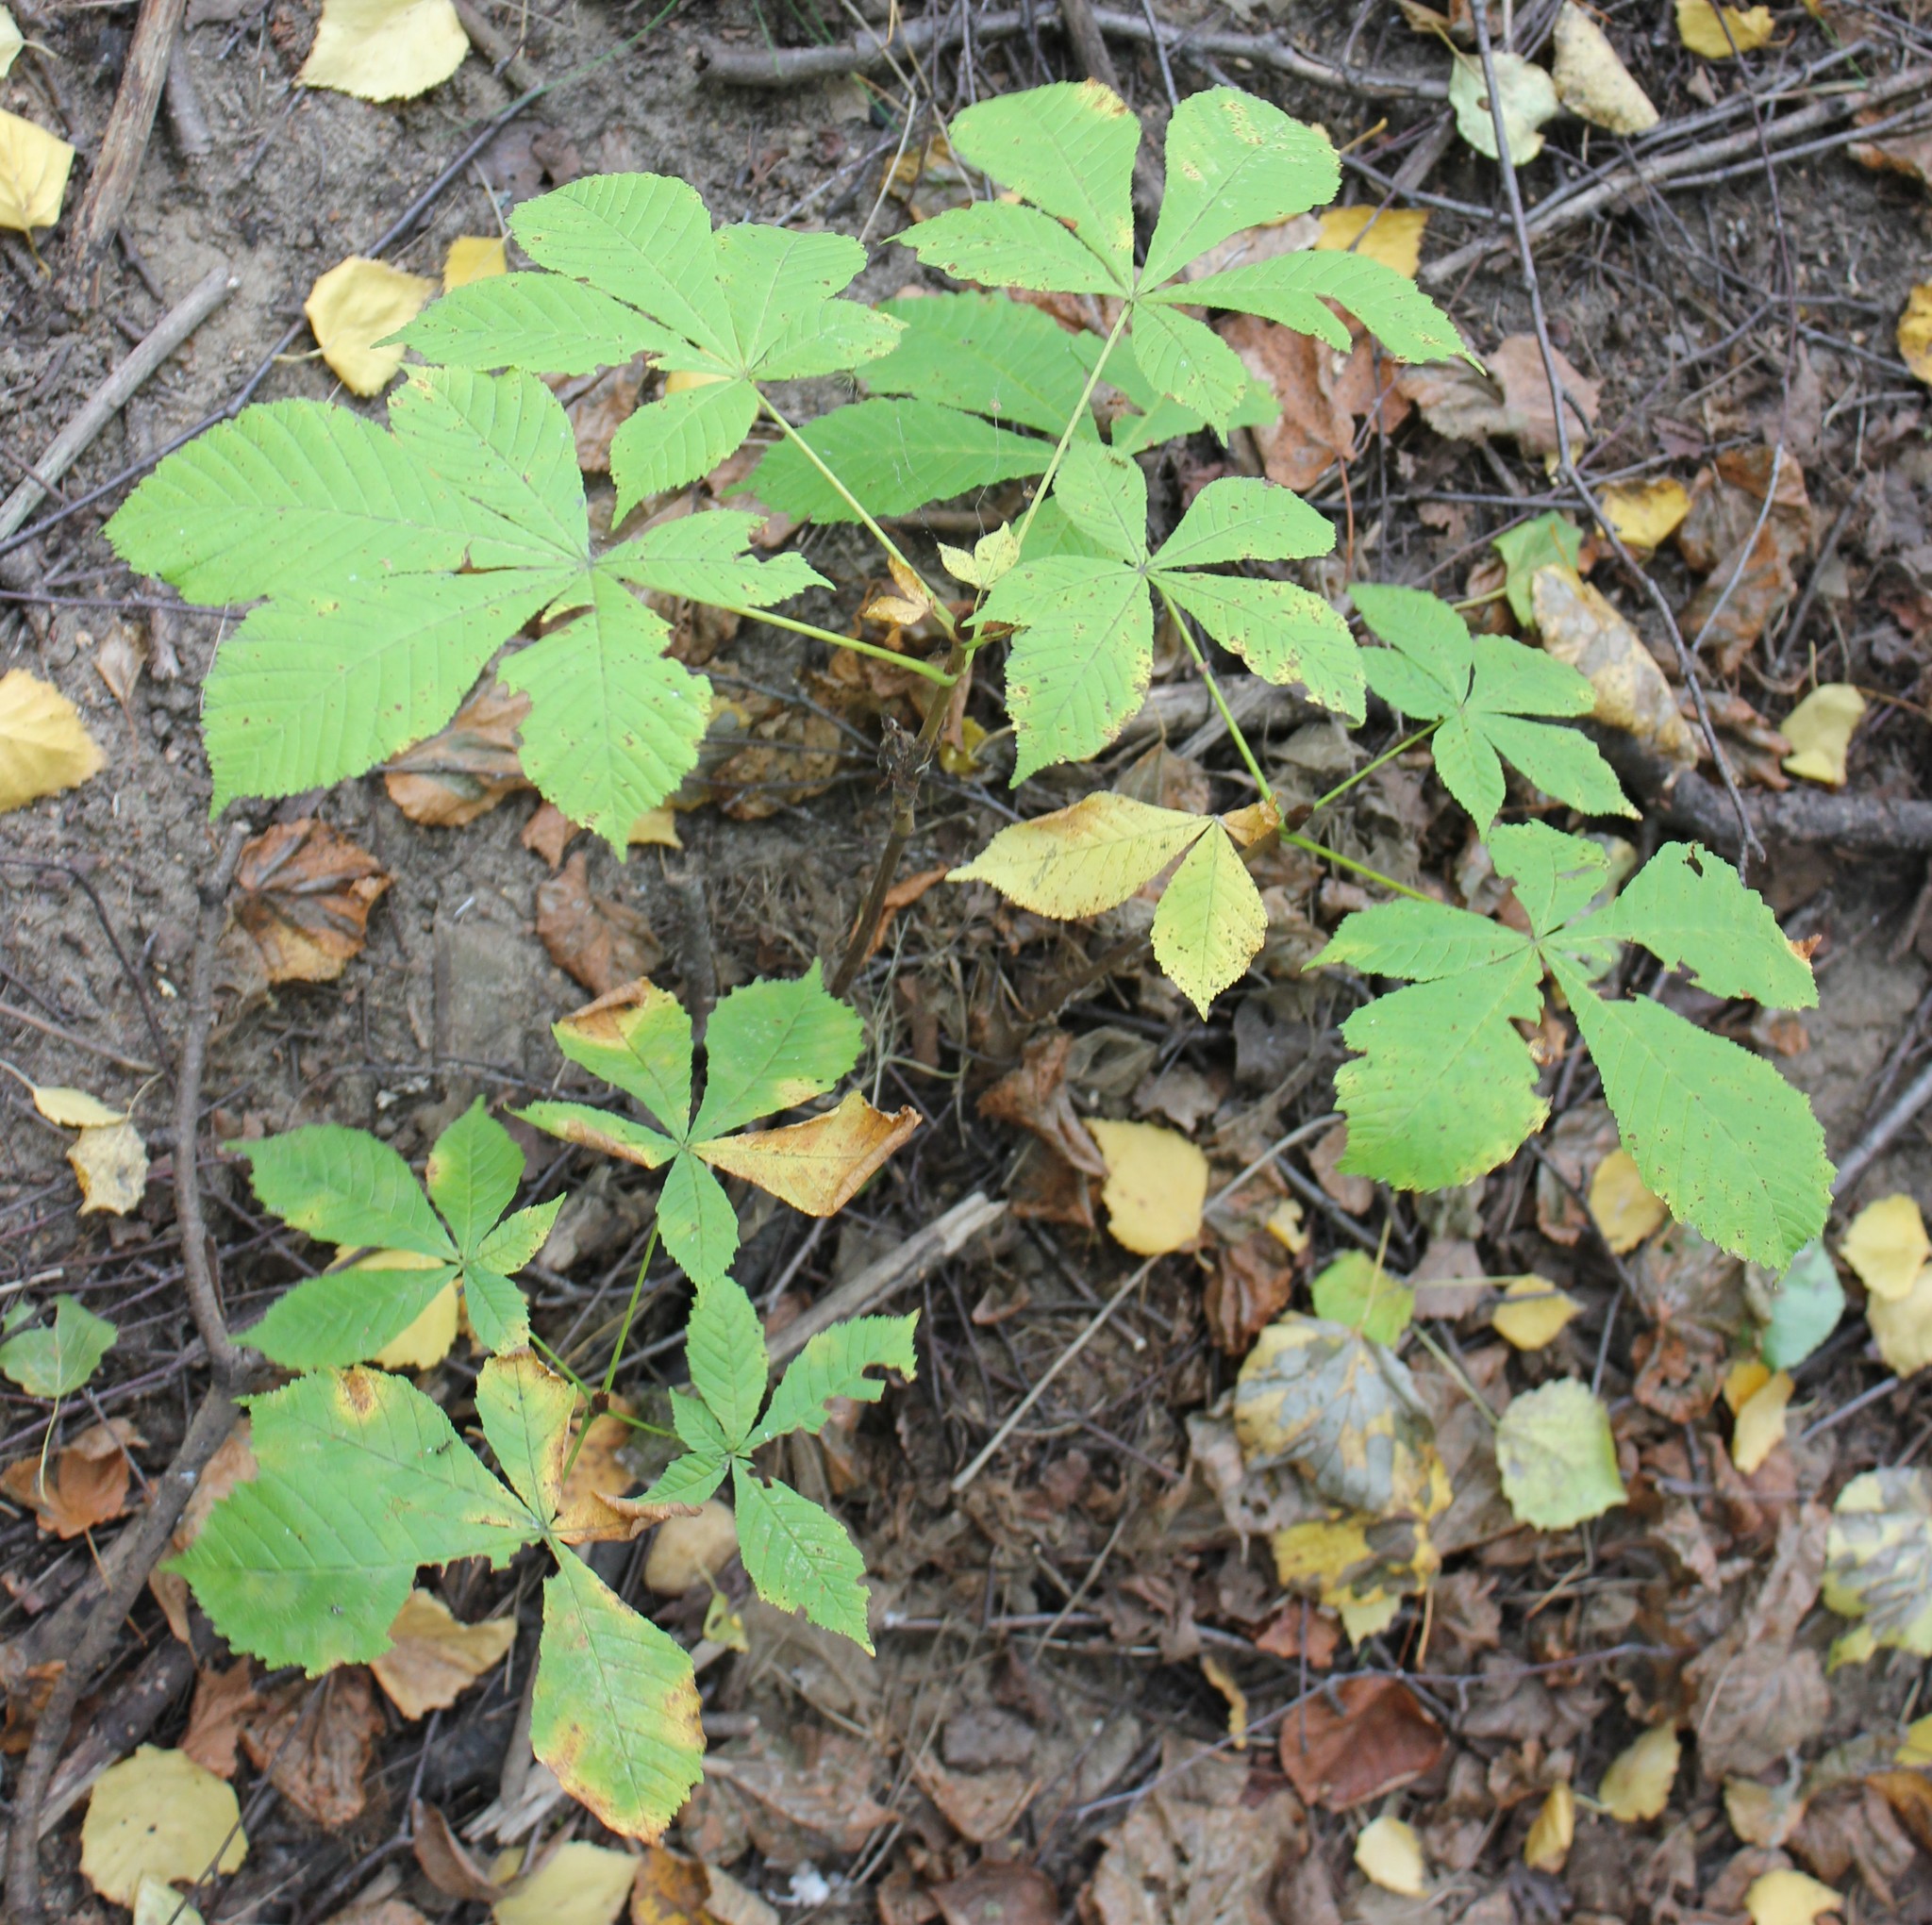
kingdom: Plantae
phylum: Tracheophyta
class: Magnoliopsida
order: Sapindales
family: Sapindaceae
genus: Aesculus
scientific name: Aesculus hippocastanum
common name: Horse-chestnut
